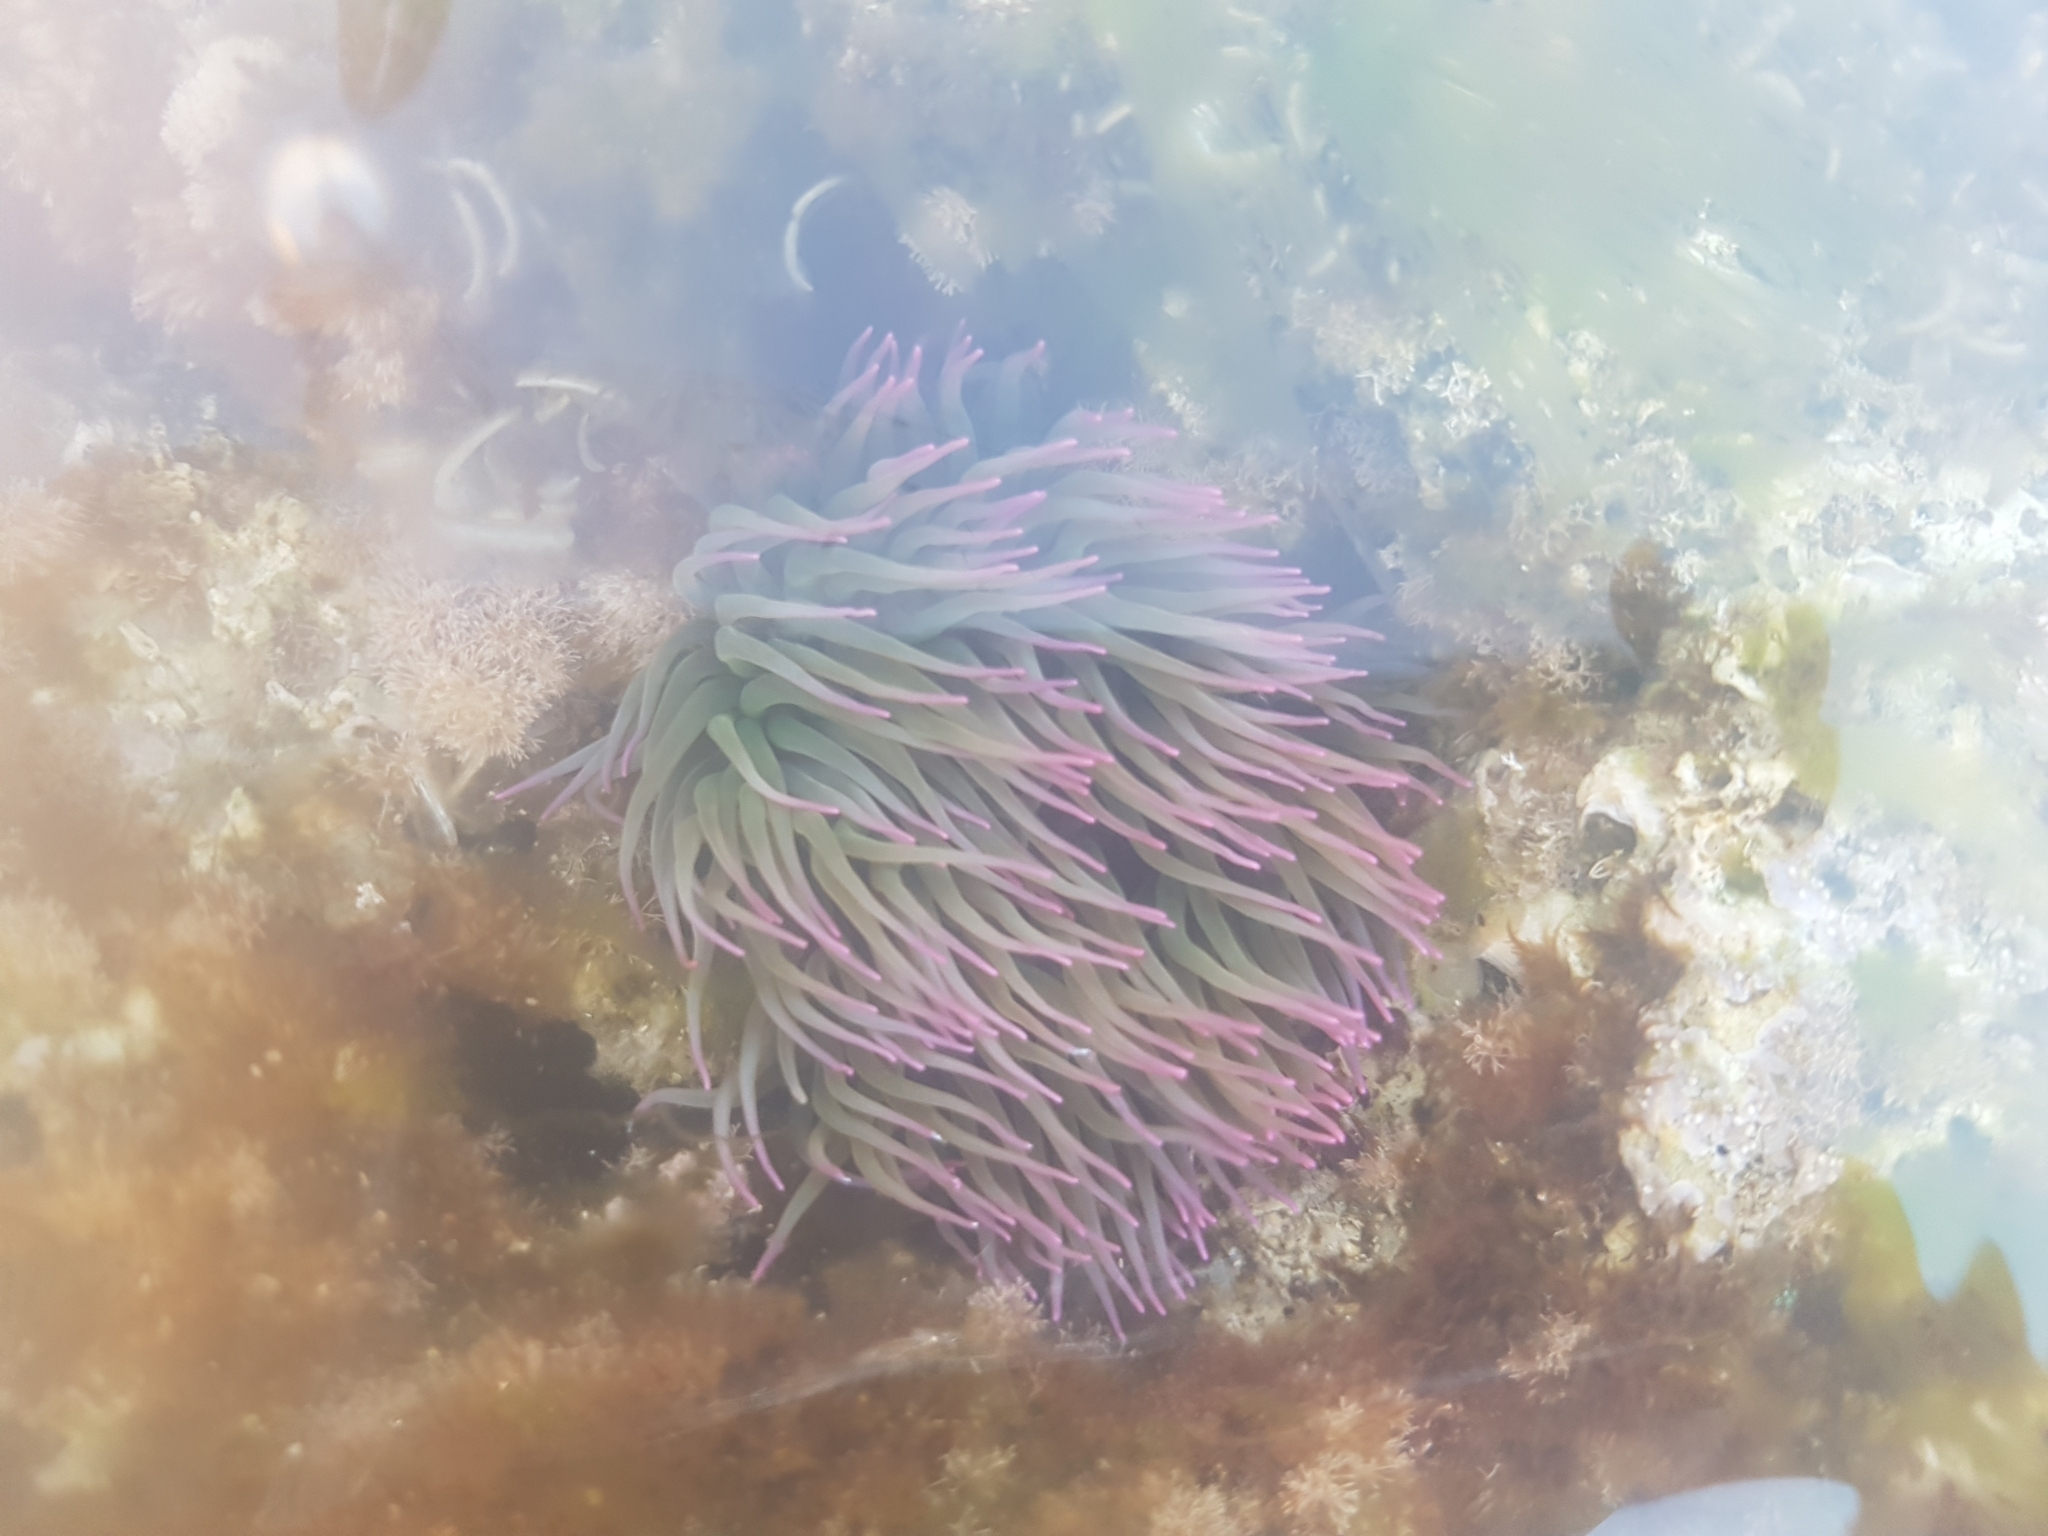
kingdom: Animalia
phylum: Cnidaria
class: Anthozoa
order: Actiniaria
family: Actiniidae
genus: Anemonia
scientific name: Anemonia viridis
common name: Snakelocks anemone
